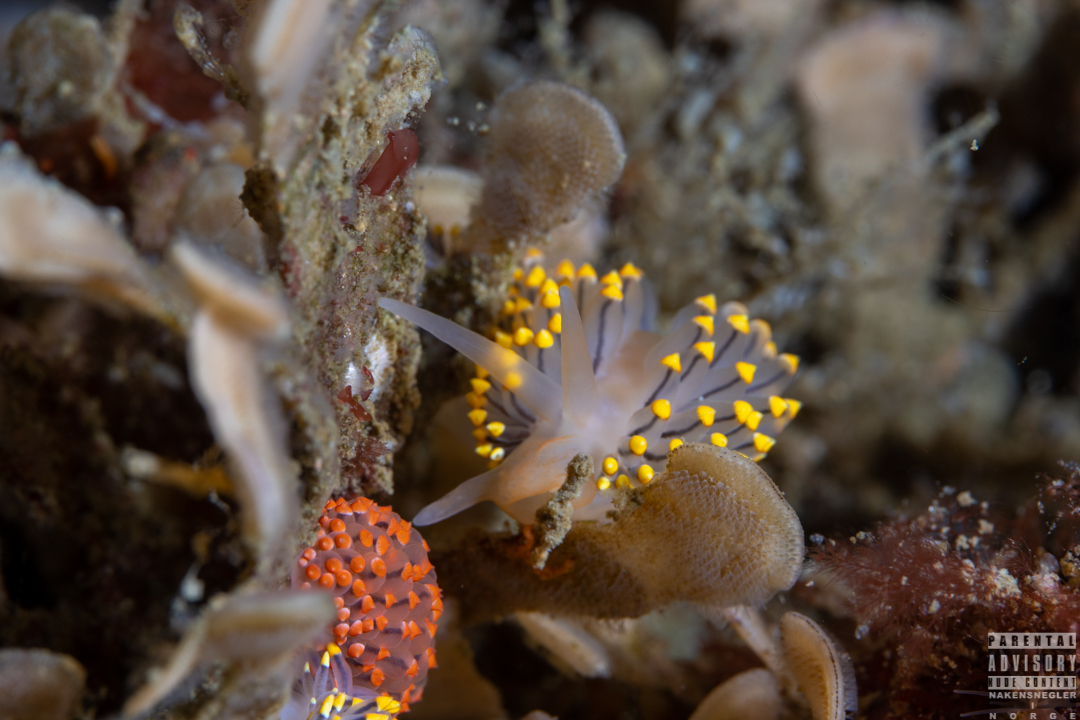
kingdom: Animalia
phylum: Mollusca
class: Gastropoda
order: Nudibranchia
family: Eubranchidae
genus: Eubranchus
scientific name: Eubranchus tricolor
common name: Painted balloon aeolis
